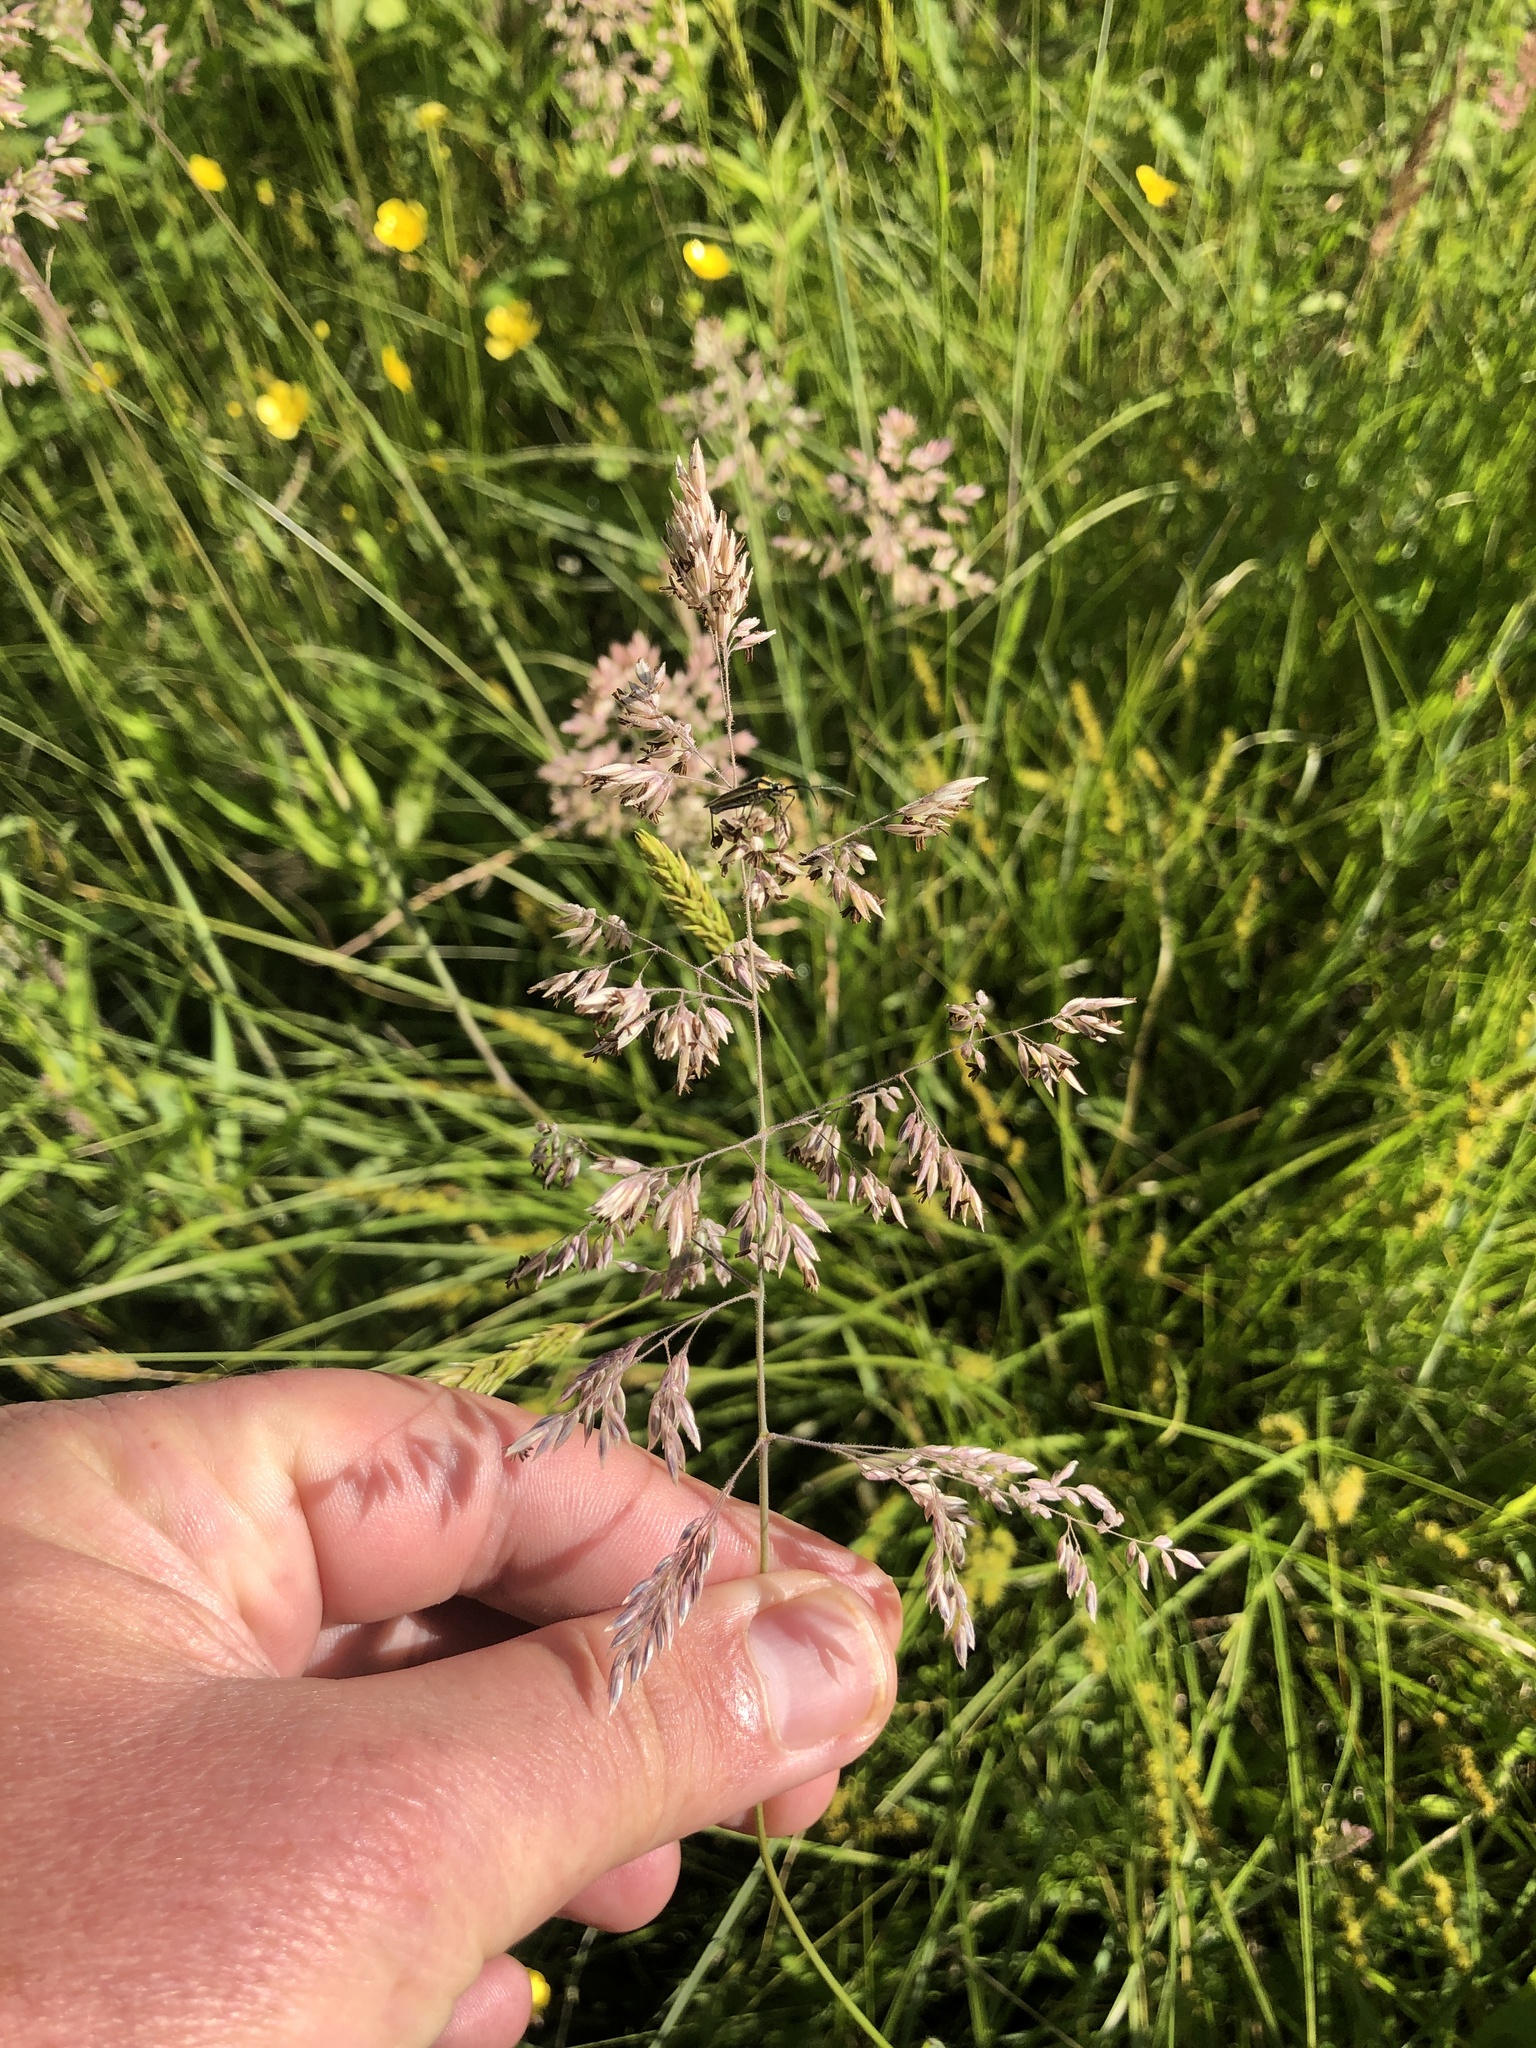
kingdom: Plantae
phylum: Tracheophyta
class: Liliopsida
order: Poales
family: Poaceae
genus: Holcus
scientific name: Holcus lanatus
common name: Yorkshire-fog
